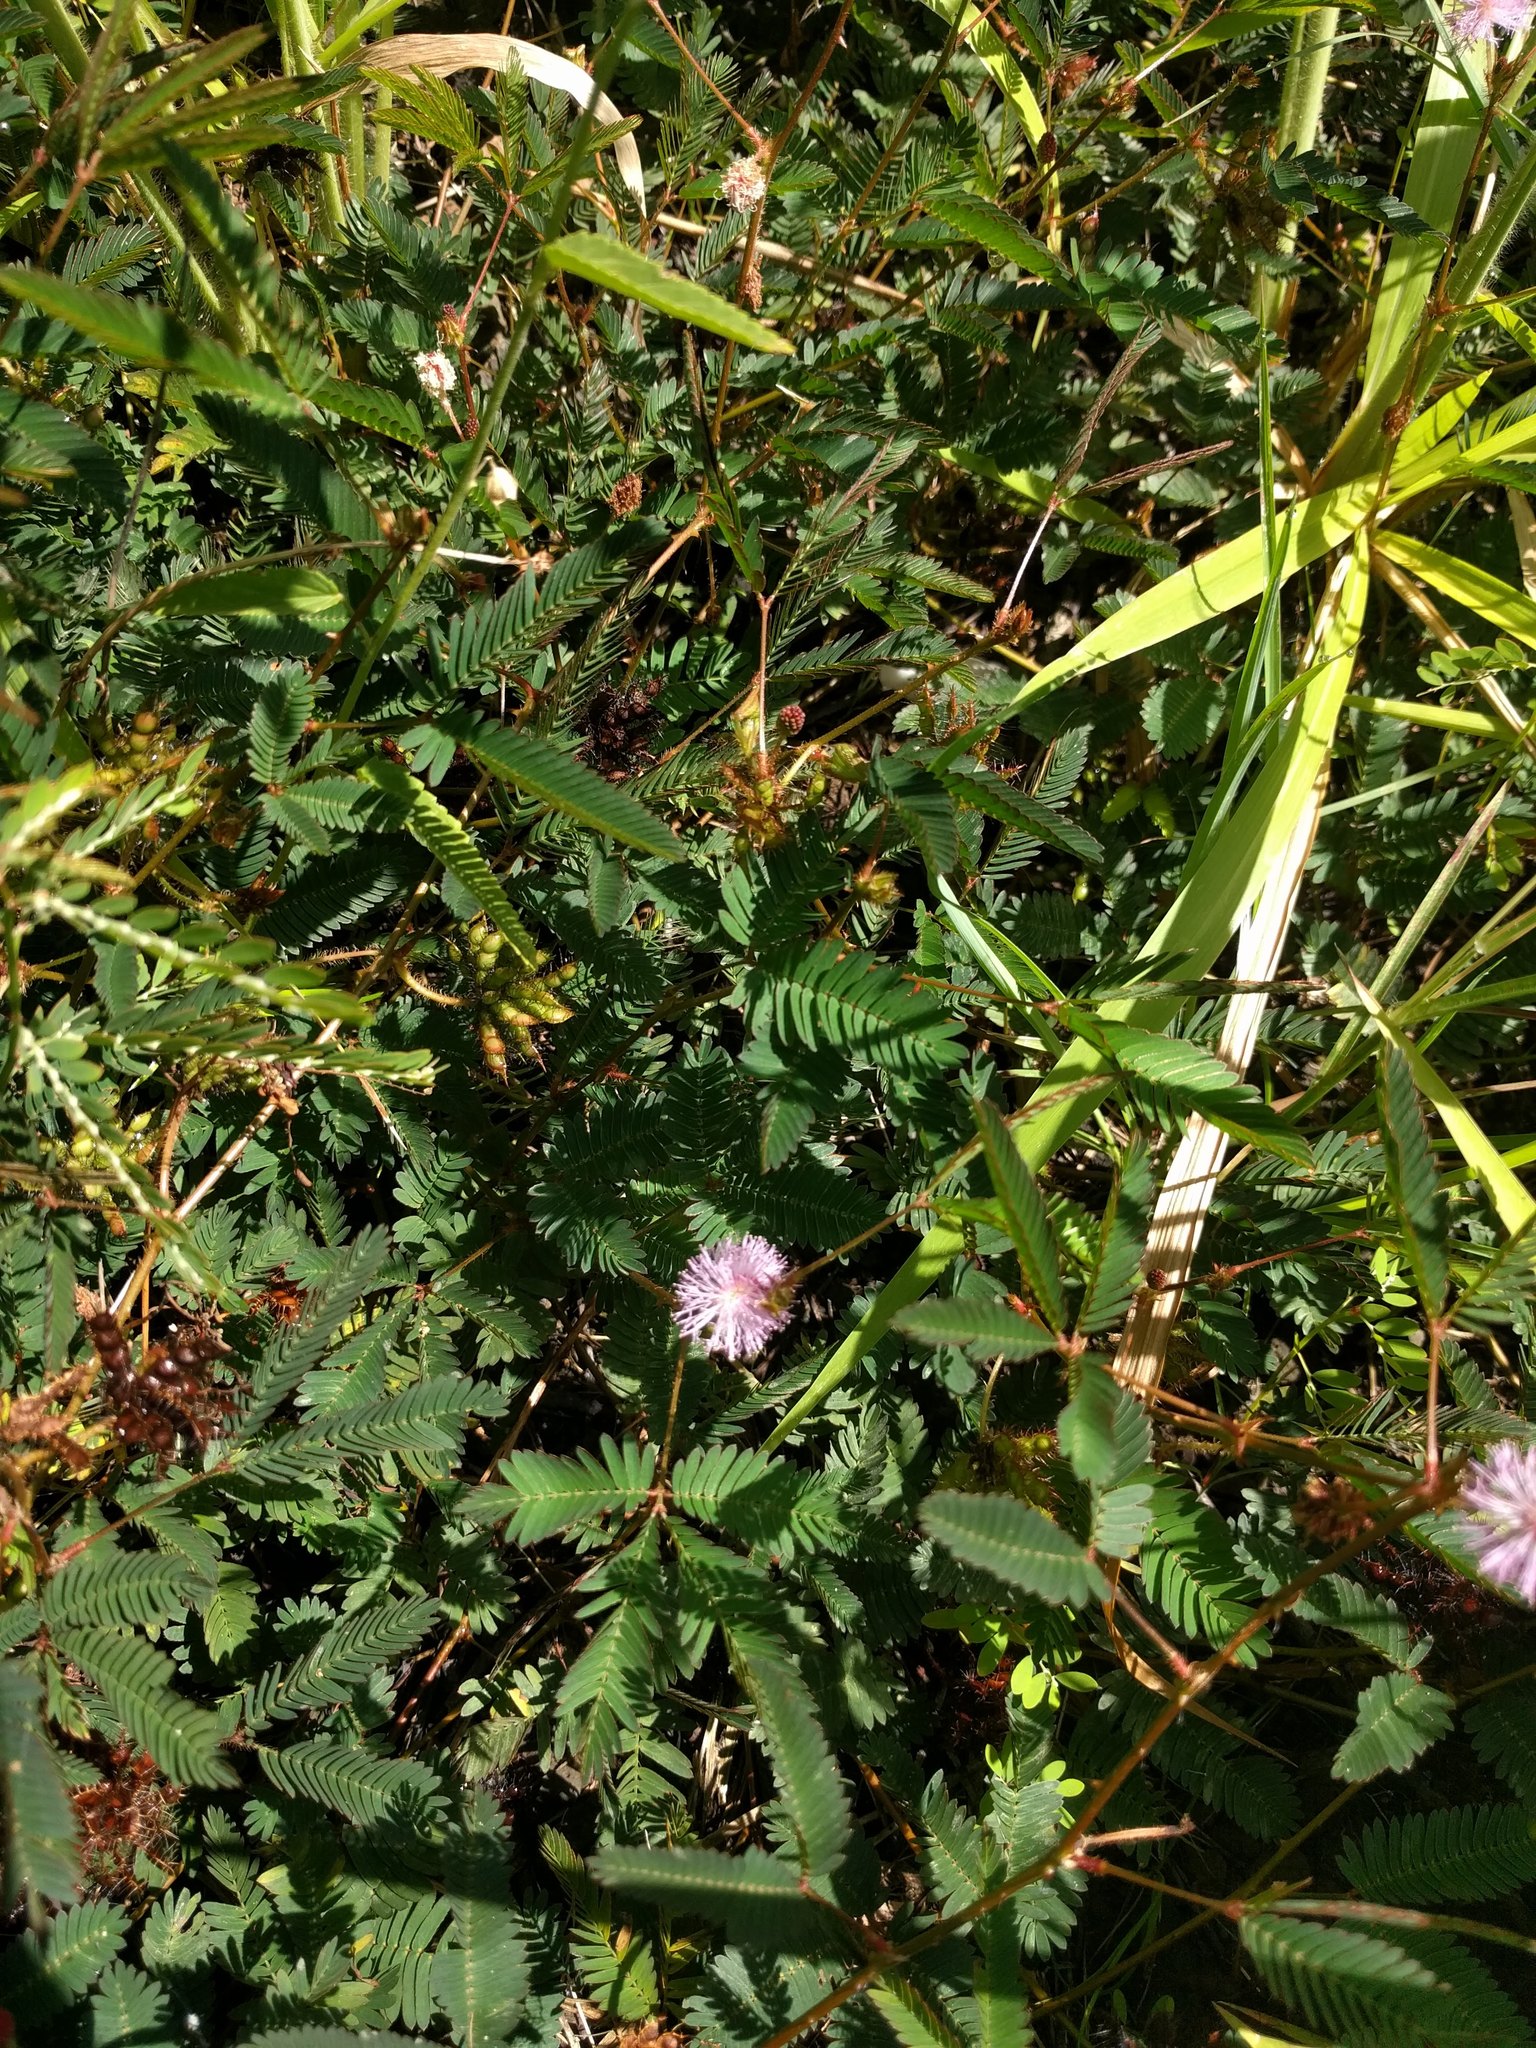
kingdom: Plantae
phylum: Tracheophyta
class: Magnoliopsida
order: Fabales
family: Fabaceae
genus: Mimosa
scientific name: Mimosa pudica
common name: Sensitive plant
